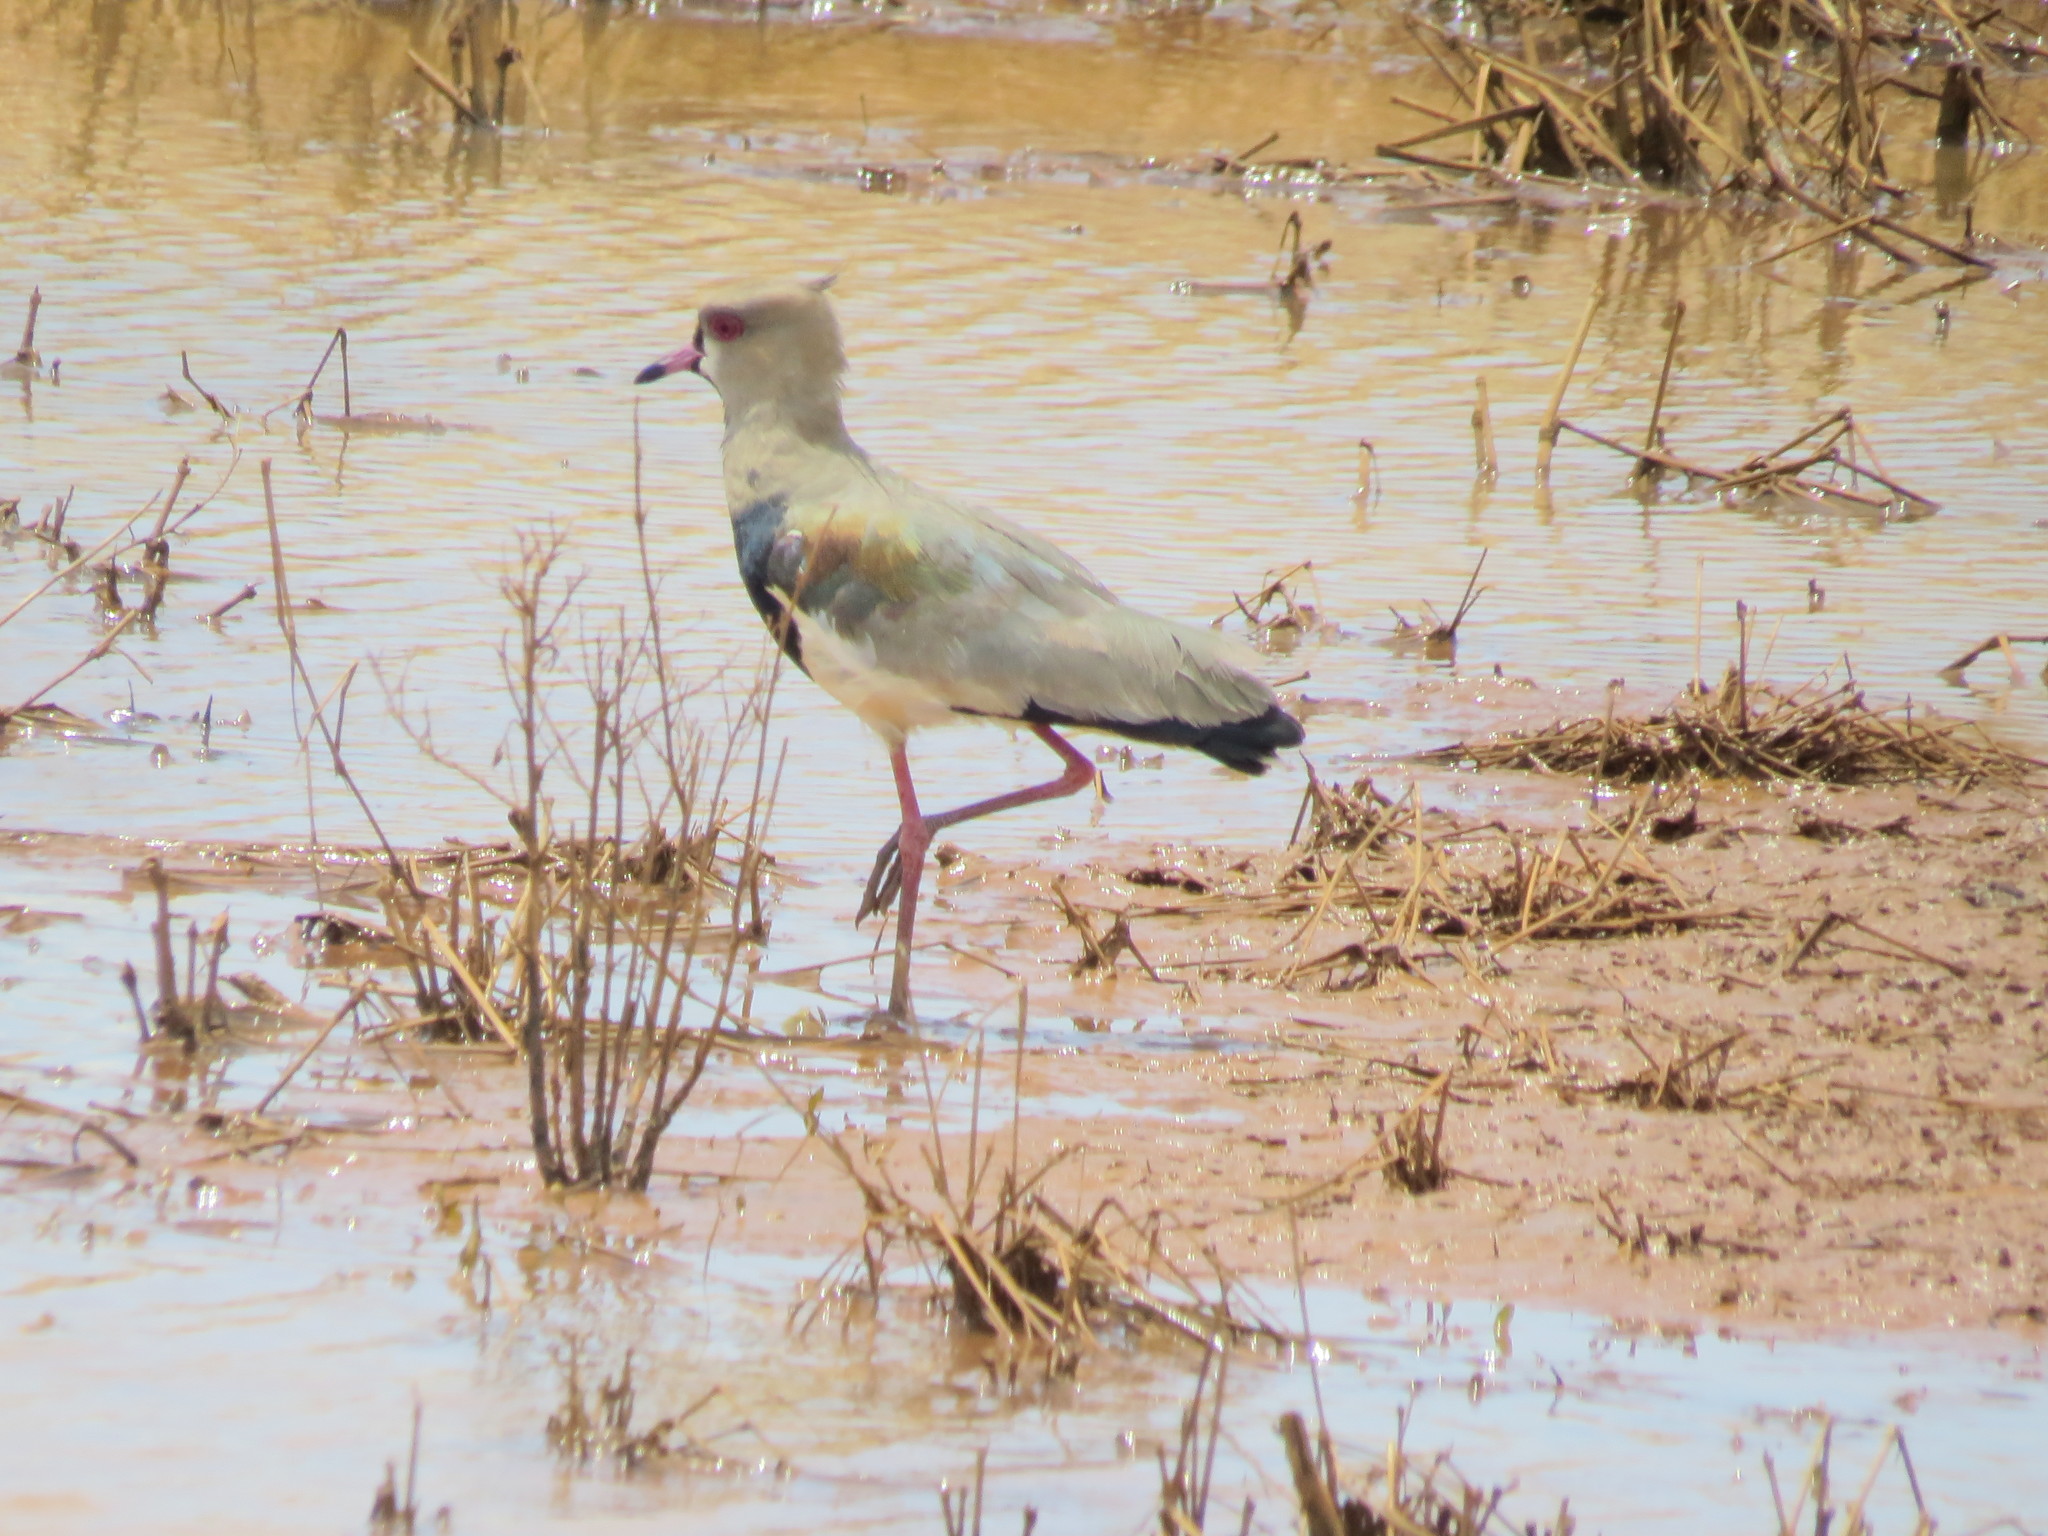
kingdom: Animalia
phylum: Chordata
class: Aves
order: Charadriiformes
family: Charadriidae
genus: Vanellus
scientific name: Vanellus chilensis
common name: Southern lapwing
